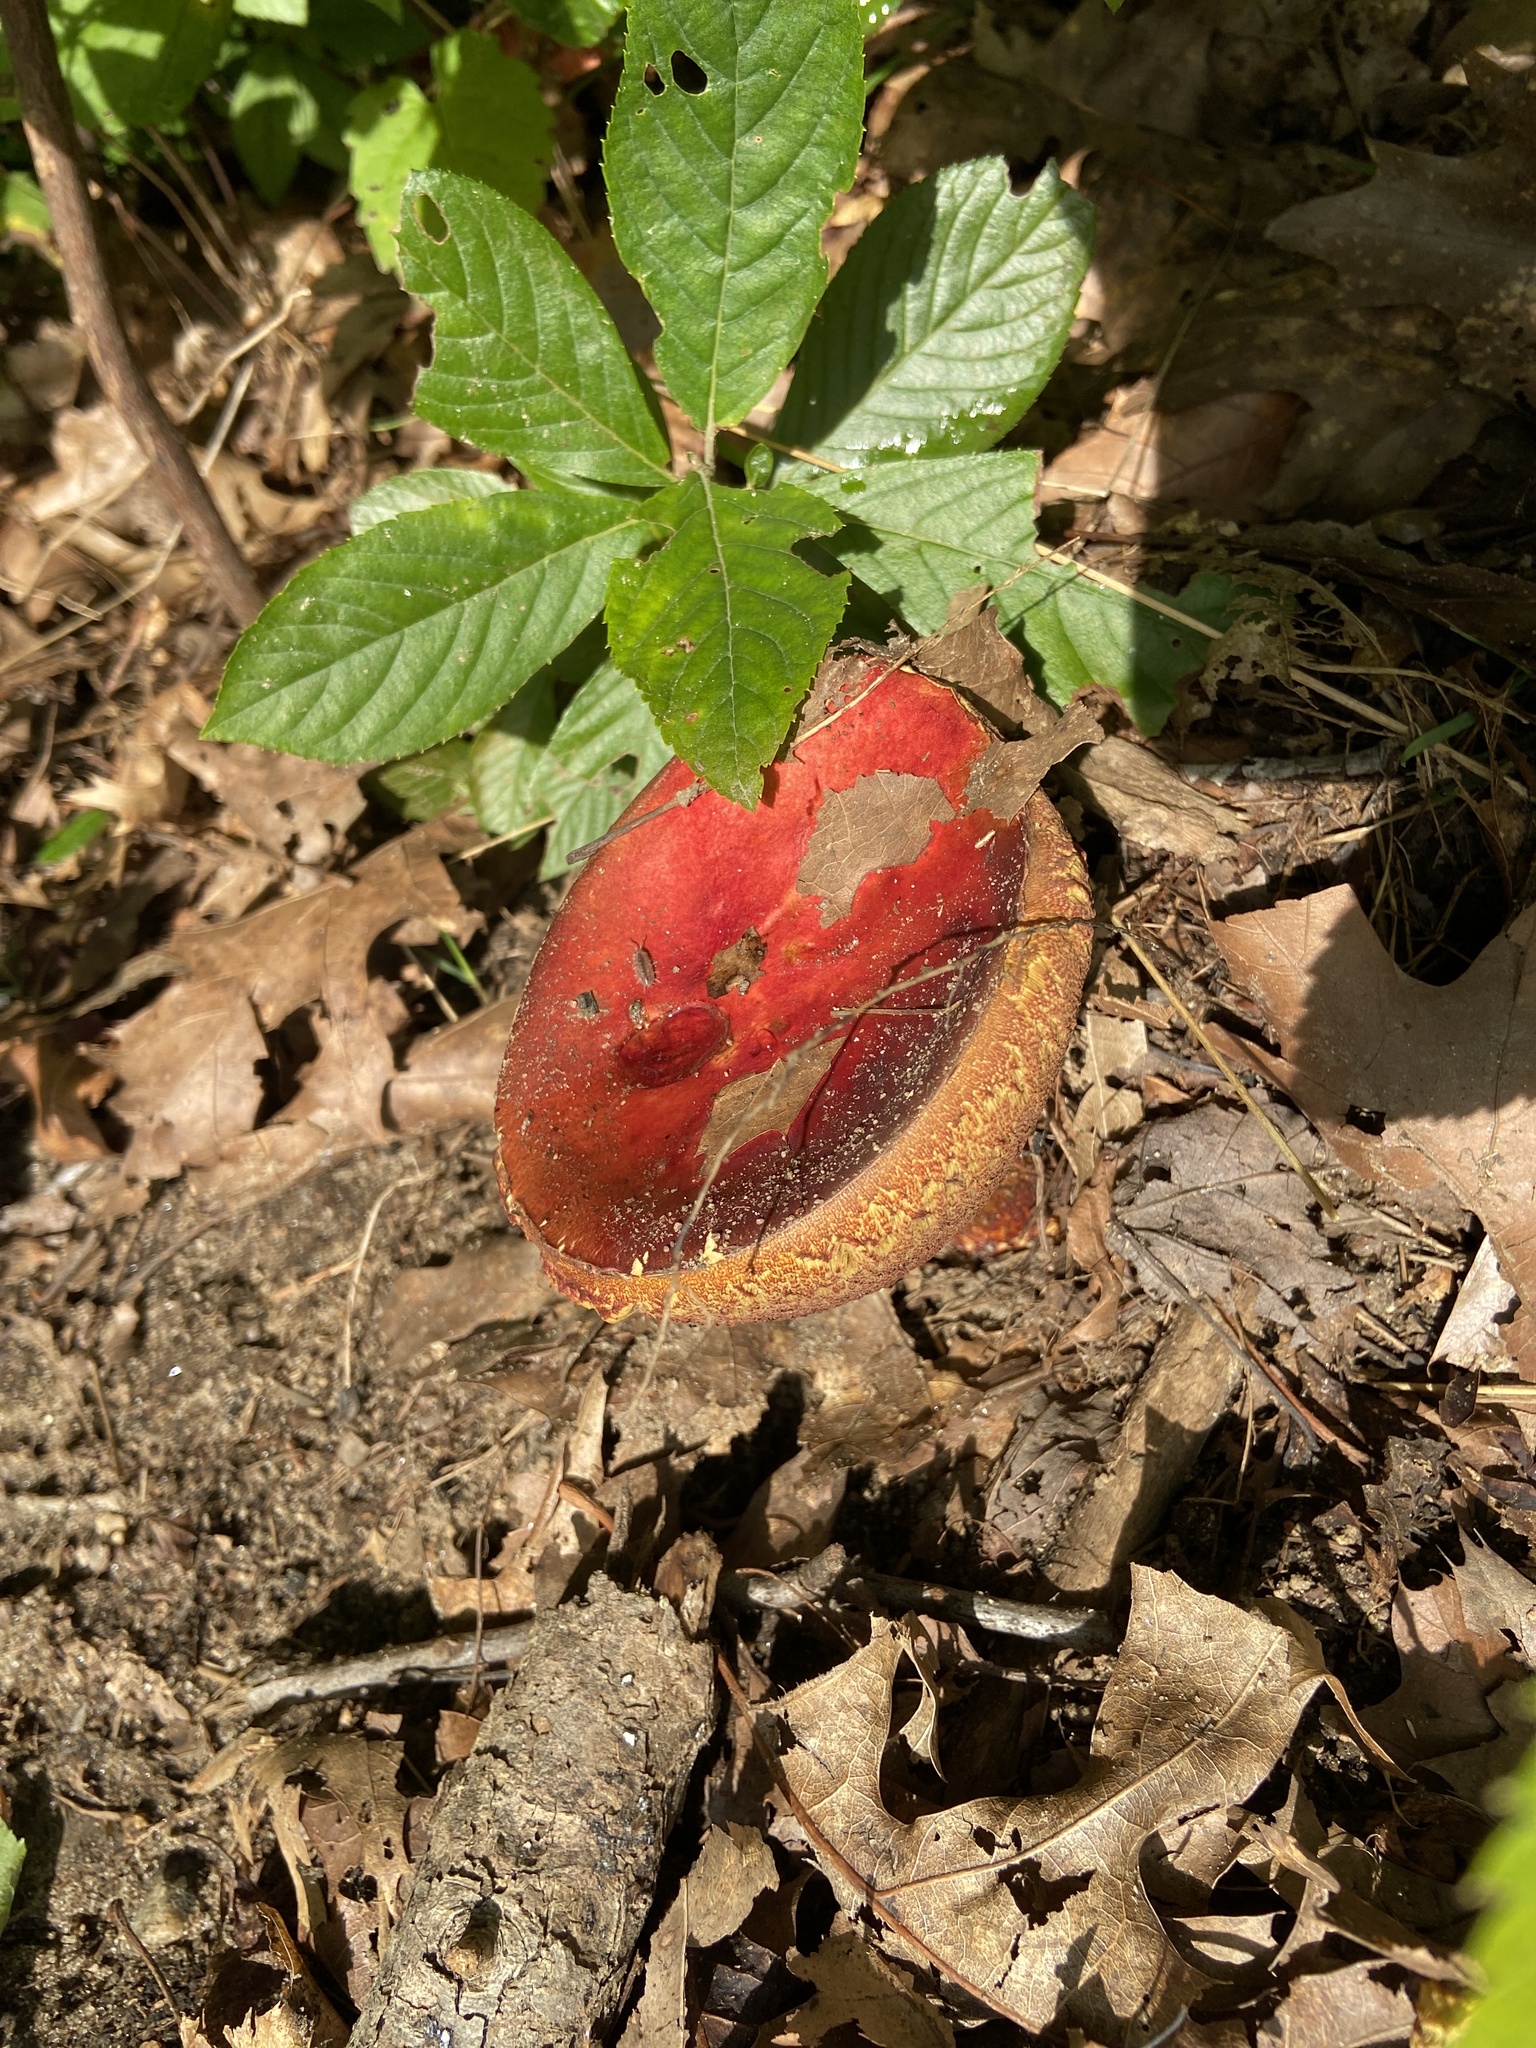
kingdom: Fungi
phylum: Basidiomycota
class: Agaricomycetes
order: Boletales
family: Boletaceae
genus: Butyriboletus
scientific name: Butyriboletus frostii
